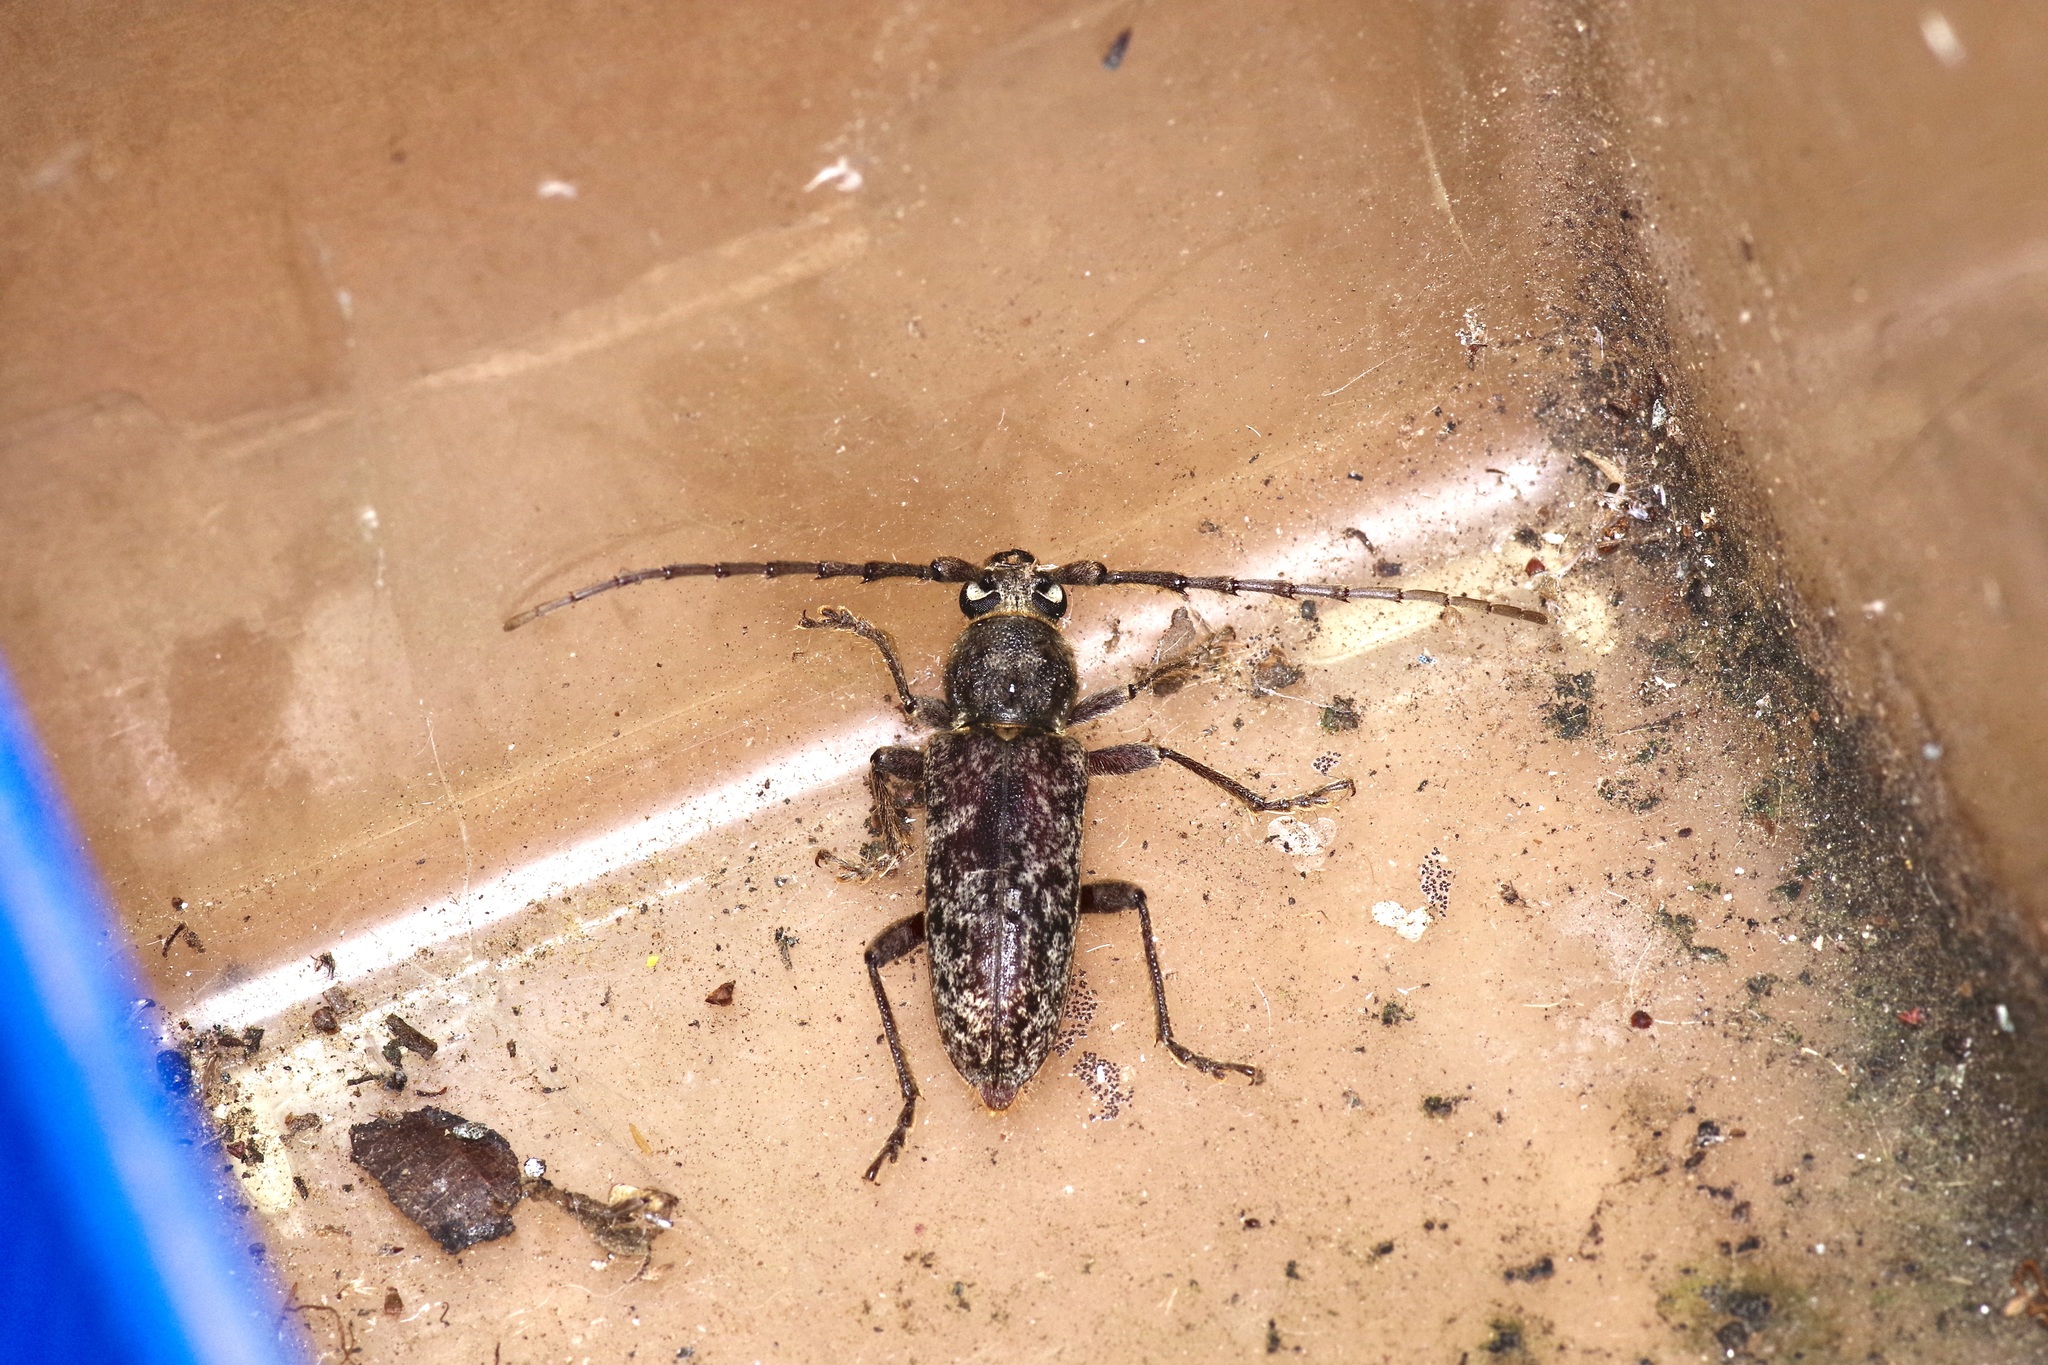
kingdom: Animalia
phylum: Arthropoda
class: Insecta
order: Coleoptera
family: Cerambycidae
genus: Elaphidion
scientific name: Elaphidion mucronatum
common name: Spined oak borer
